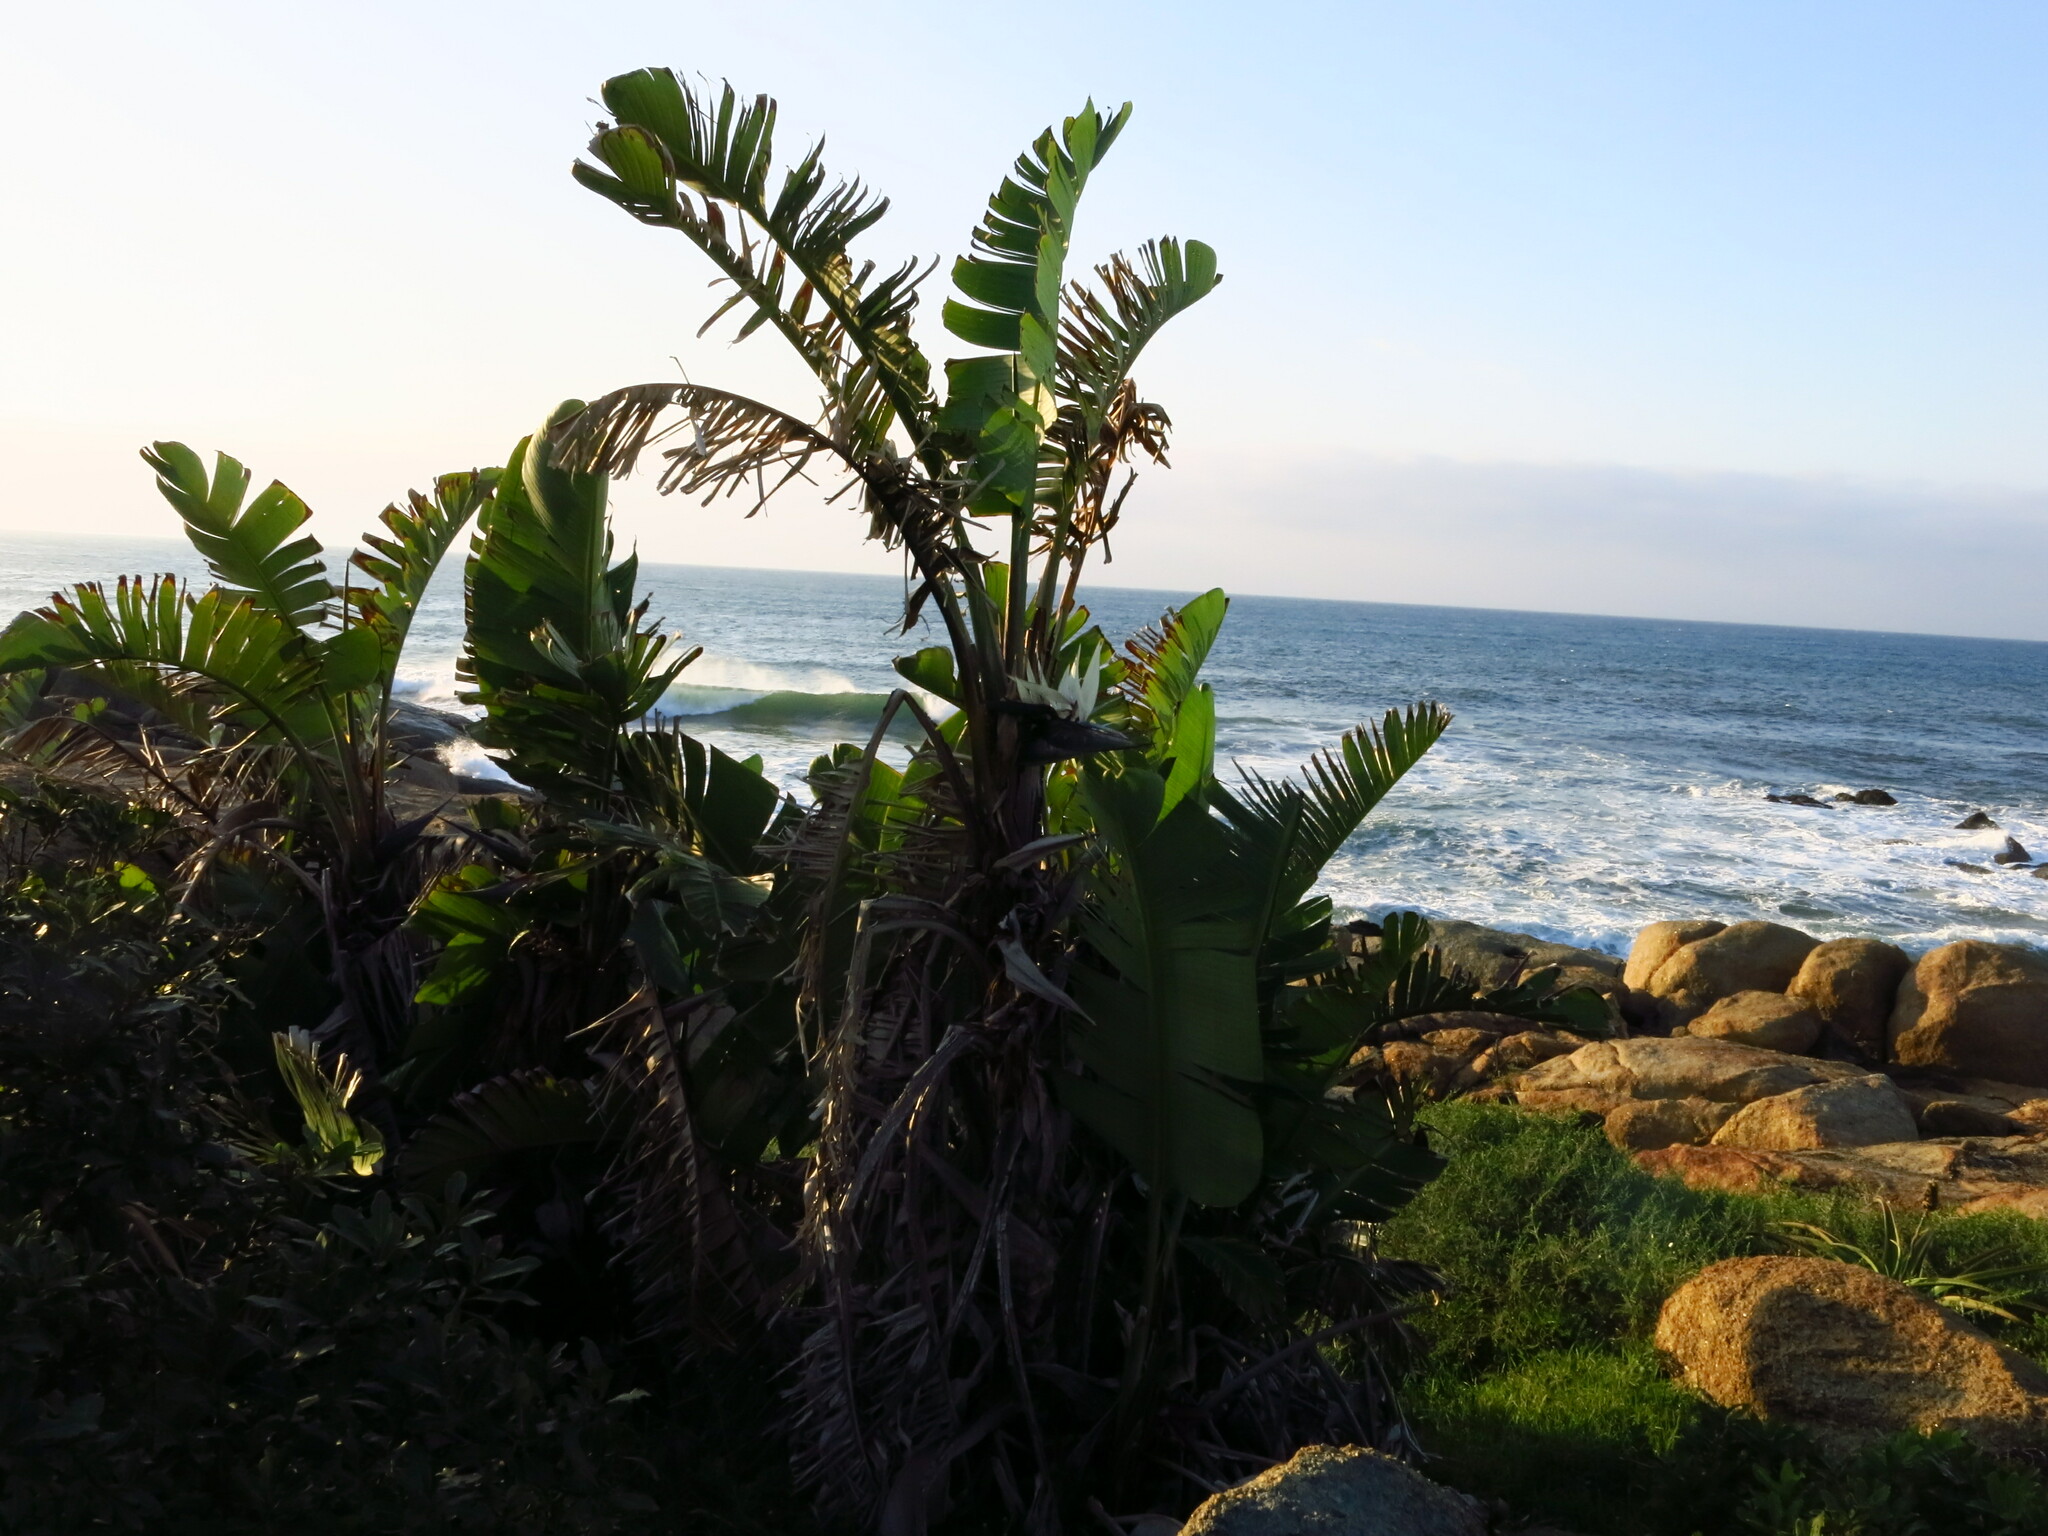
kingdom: Plantae
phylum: Tracheophyta
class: Liliopsida
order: Zingiberales
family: Strelitziaceae
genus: Strelitzia
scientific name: Strelitzia nicolai
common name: Bird-of-paradise tree
